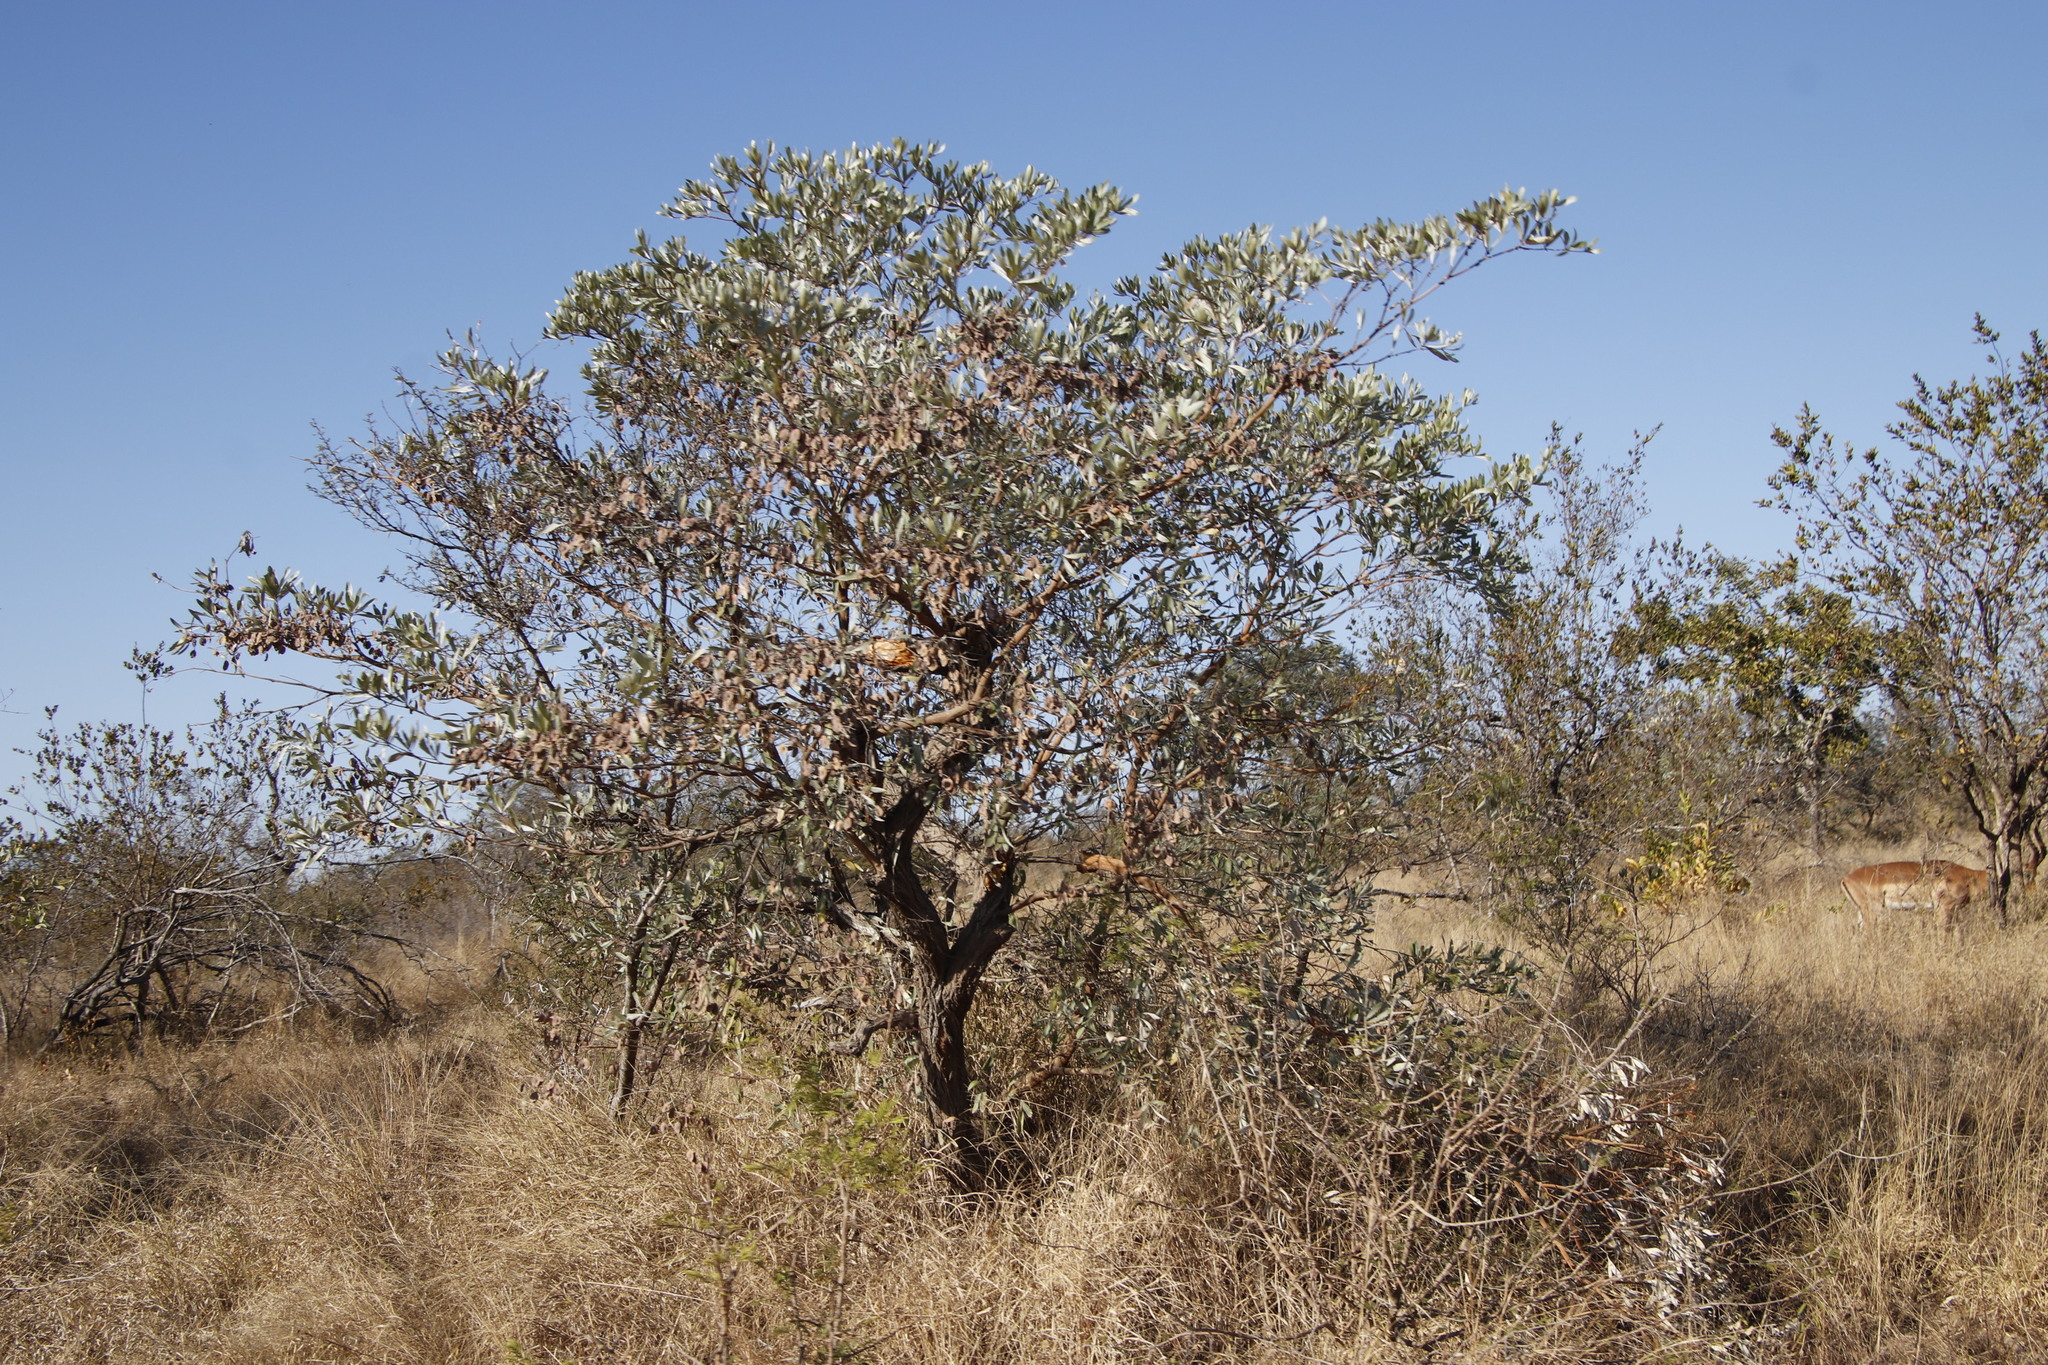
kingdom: Plantae
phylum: Tracheophyta
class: Magnoliopsida
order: Myrtales
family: Combretaceae
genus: Terminalia
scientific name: Terminalia sericea
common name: Clusterleaf
